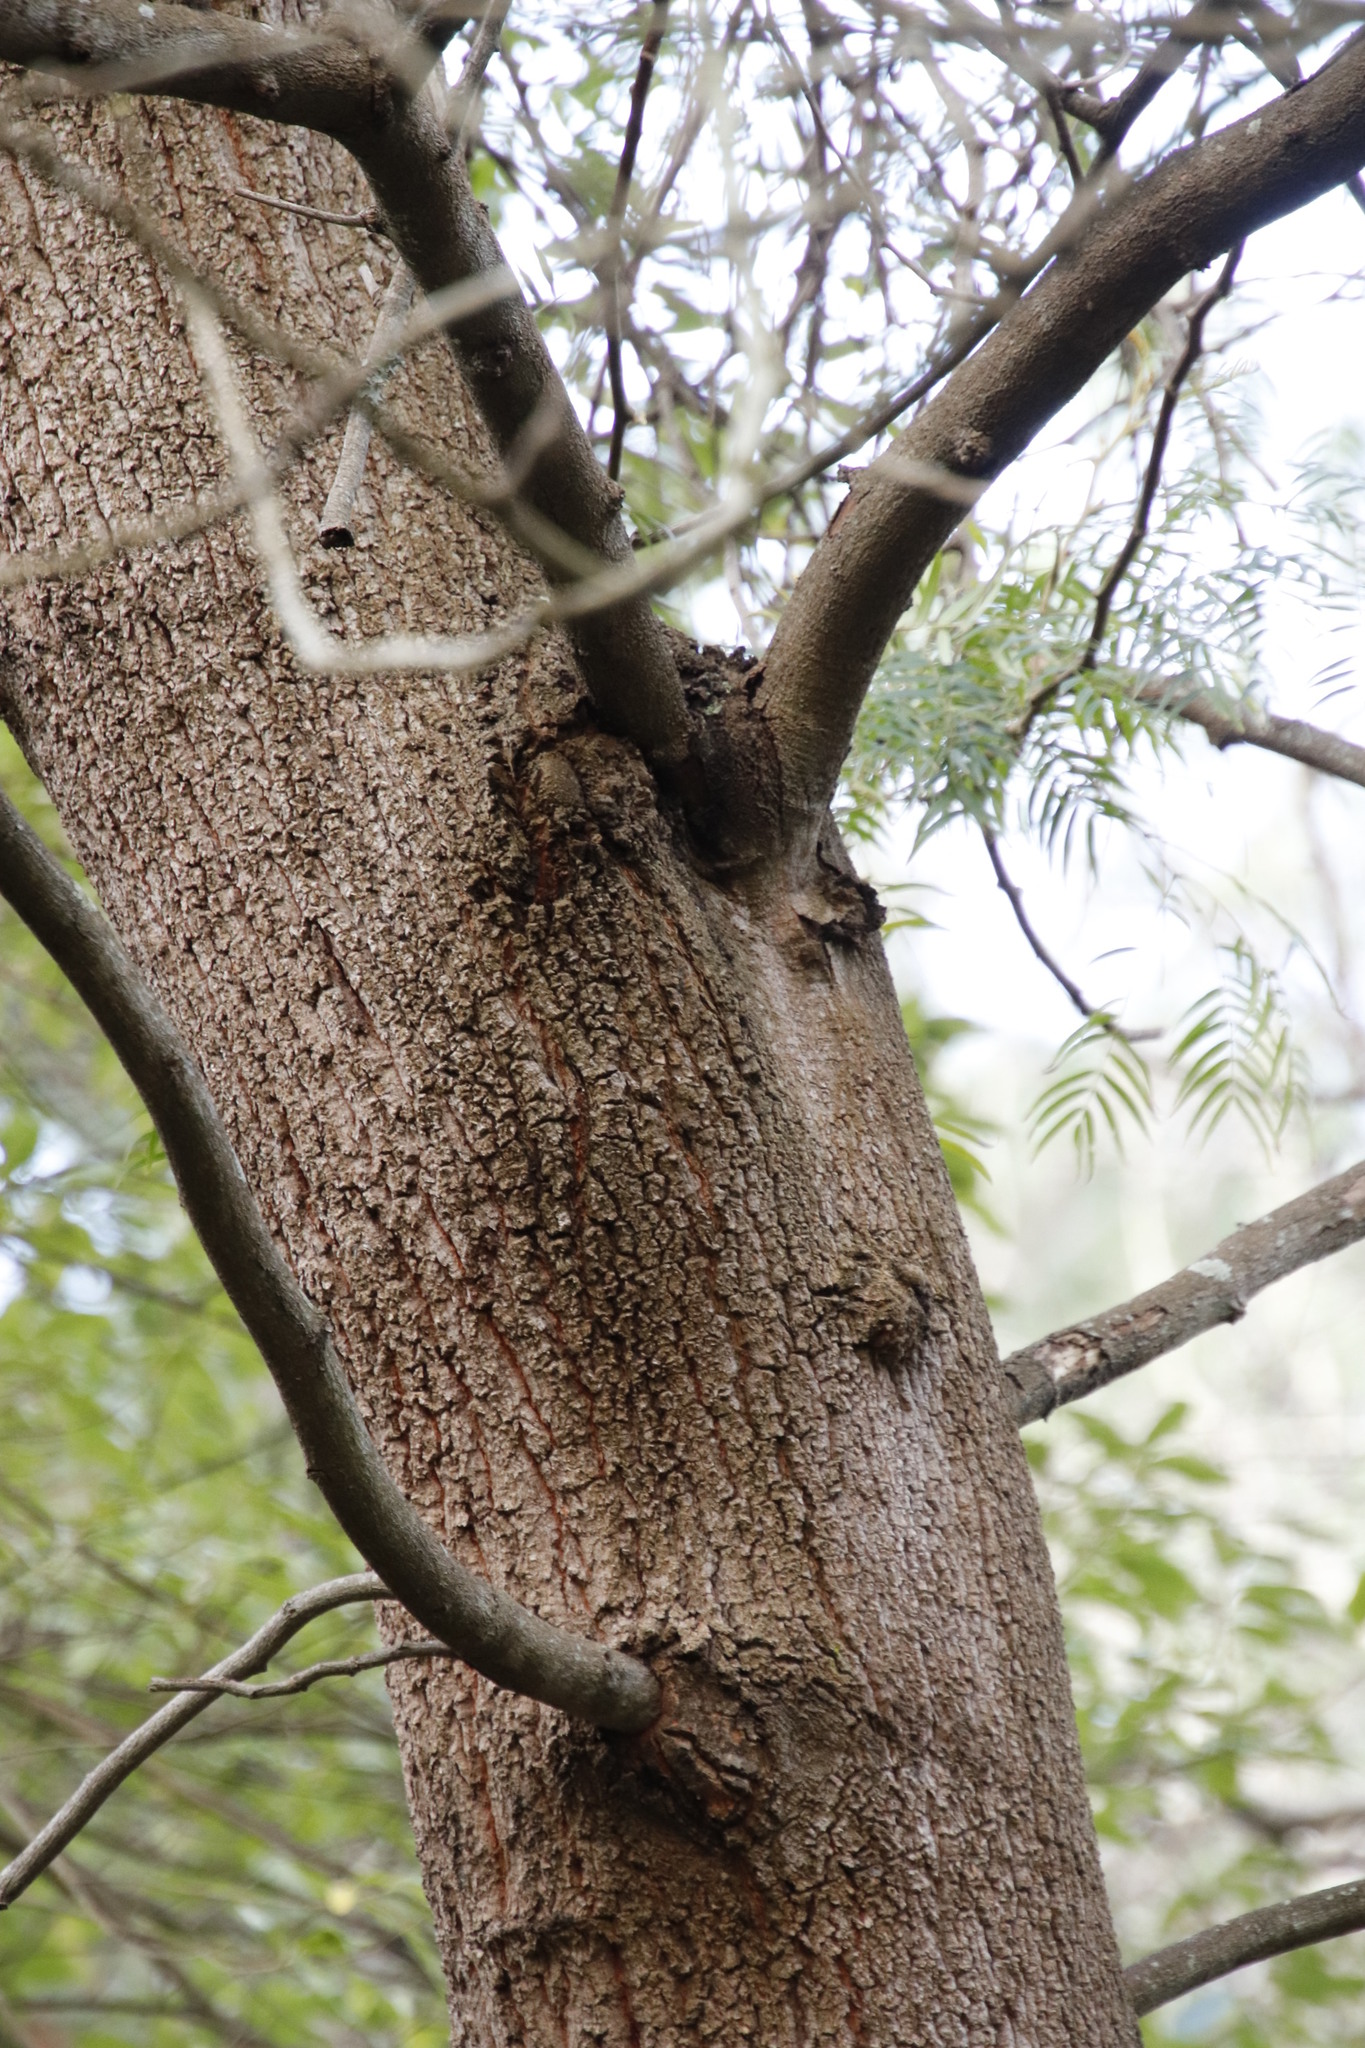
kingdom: Plantae
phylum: Tracheophyta
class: Magnoliopsida
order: Fabales
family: Fabaceae
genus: Acacia
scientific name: Acacia elata
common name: Cedar wattle
